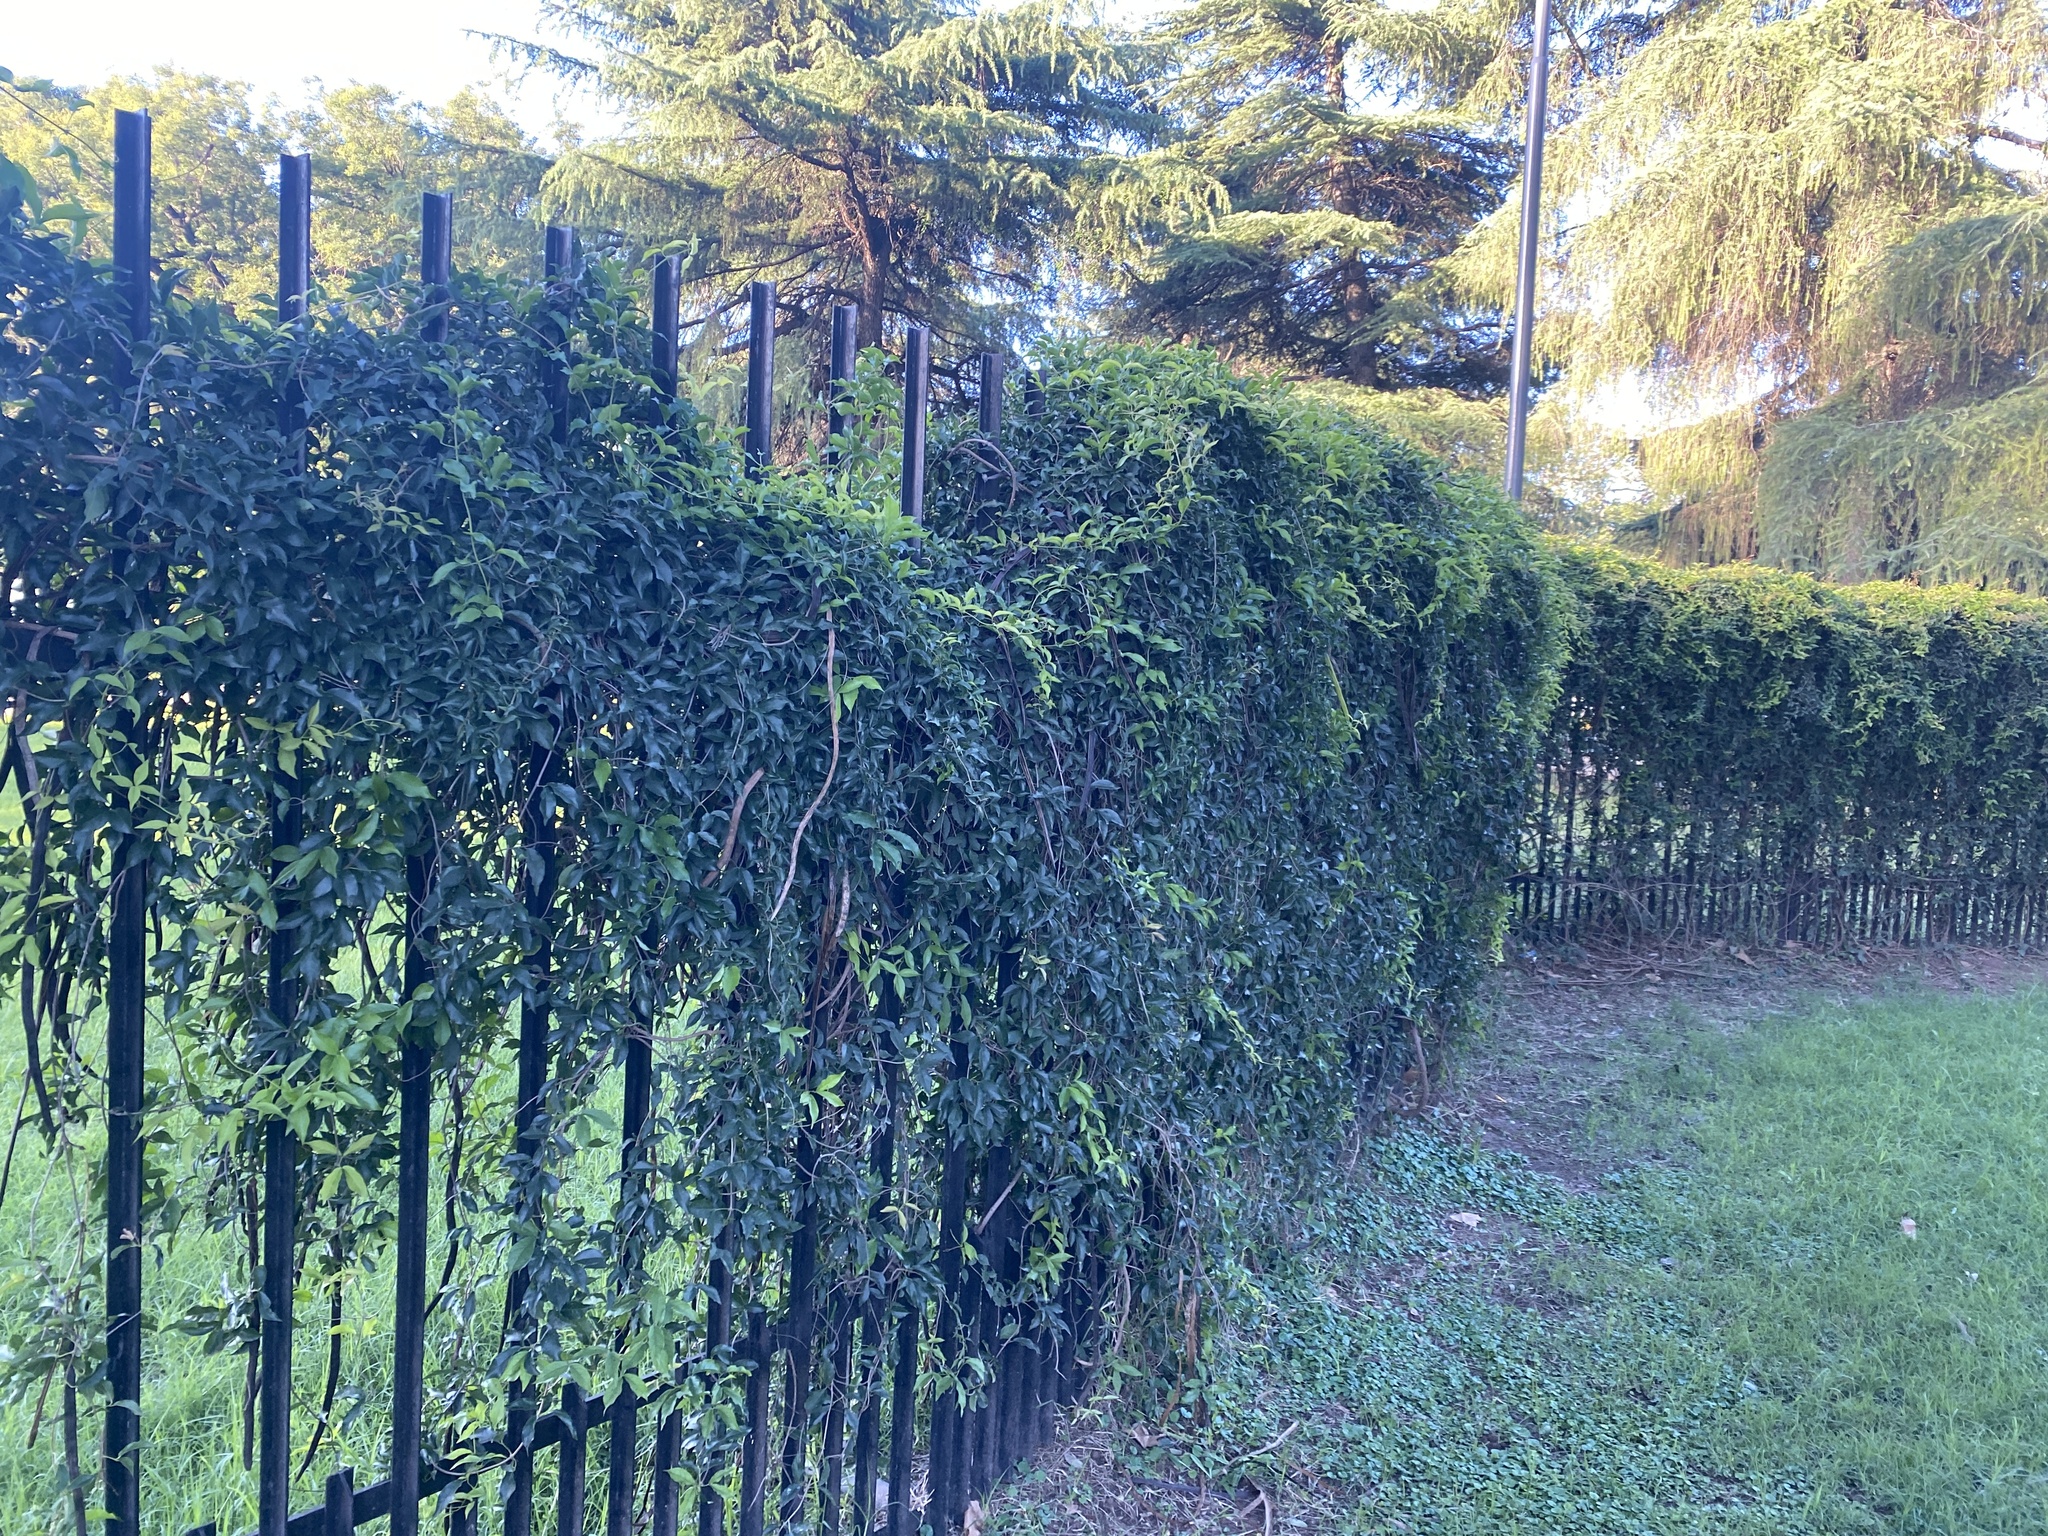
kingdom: Plantae
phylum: Tracheophyta
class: Magnoliopsida
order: Lamiales
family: Bignoniaceae
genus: Dolichandra
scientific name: Dolichandra unguis-cati
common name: Catclaw vine
